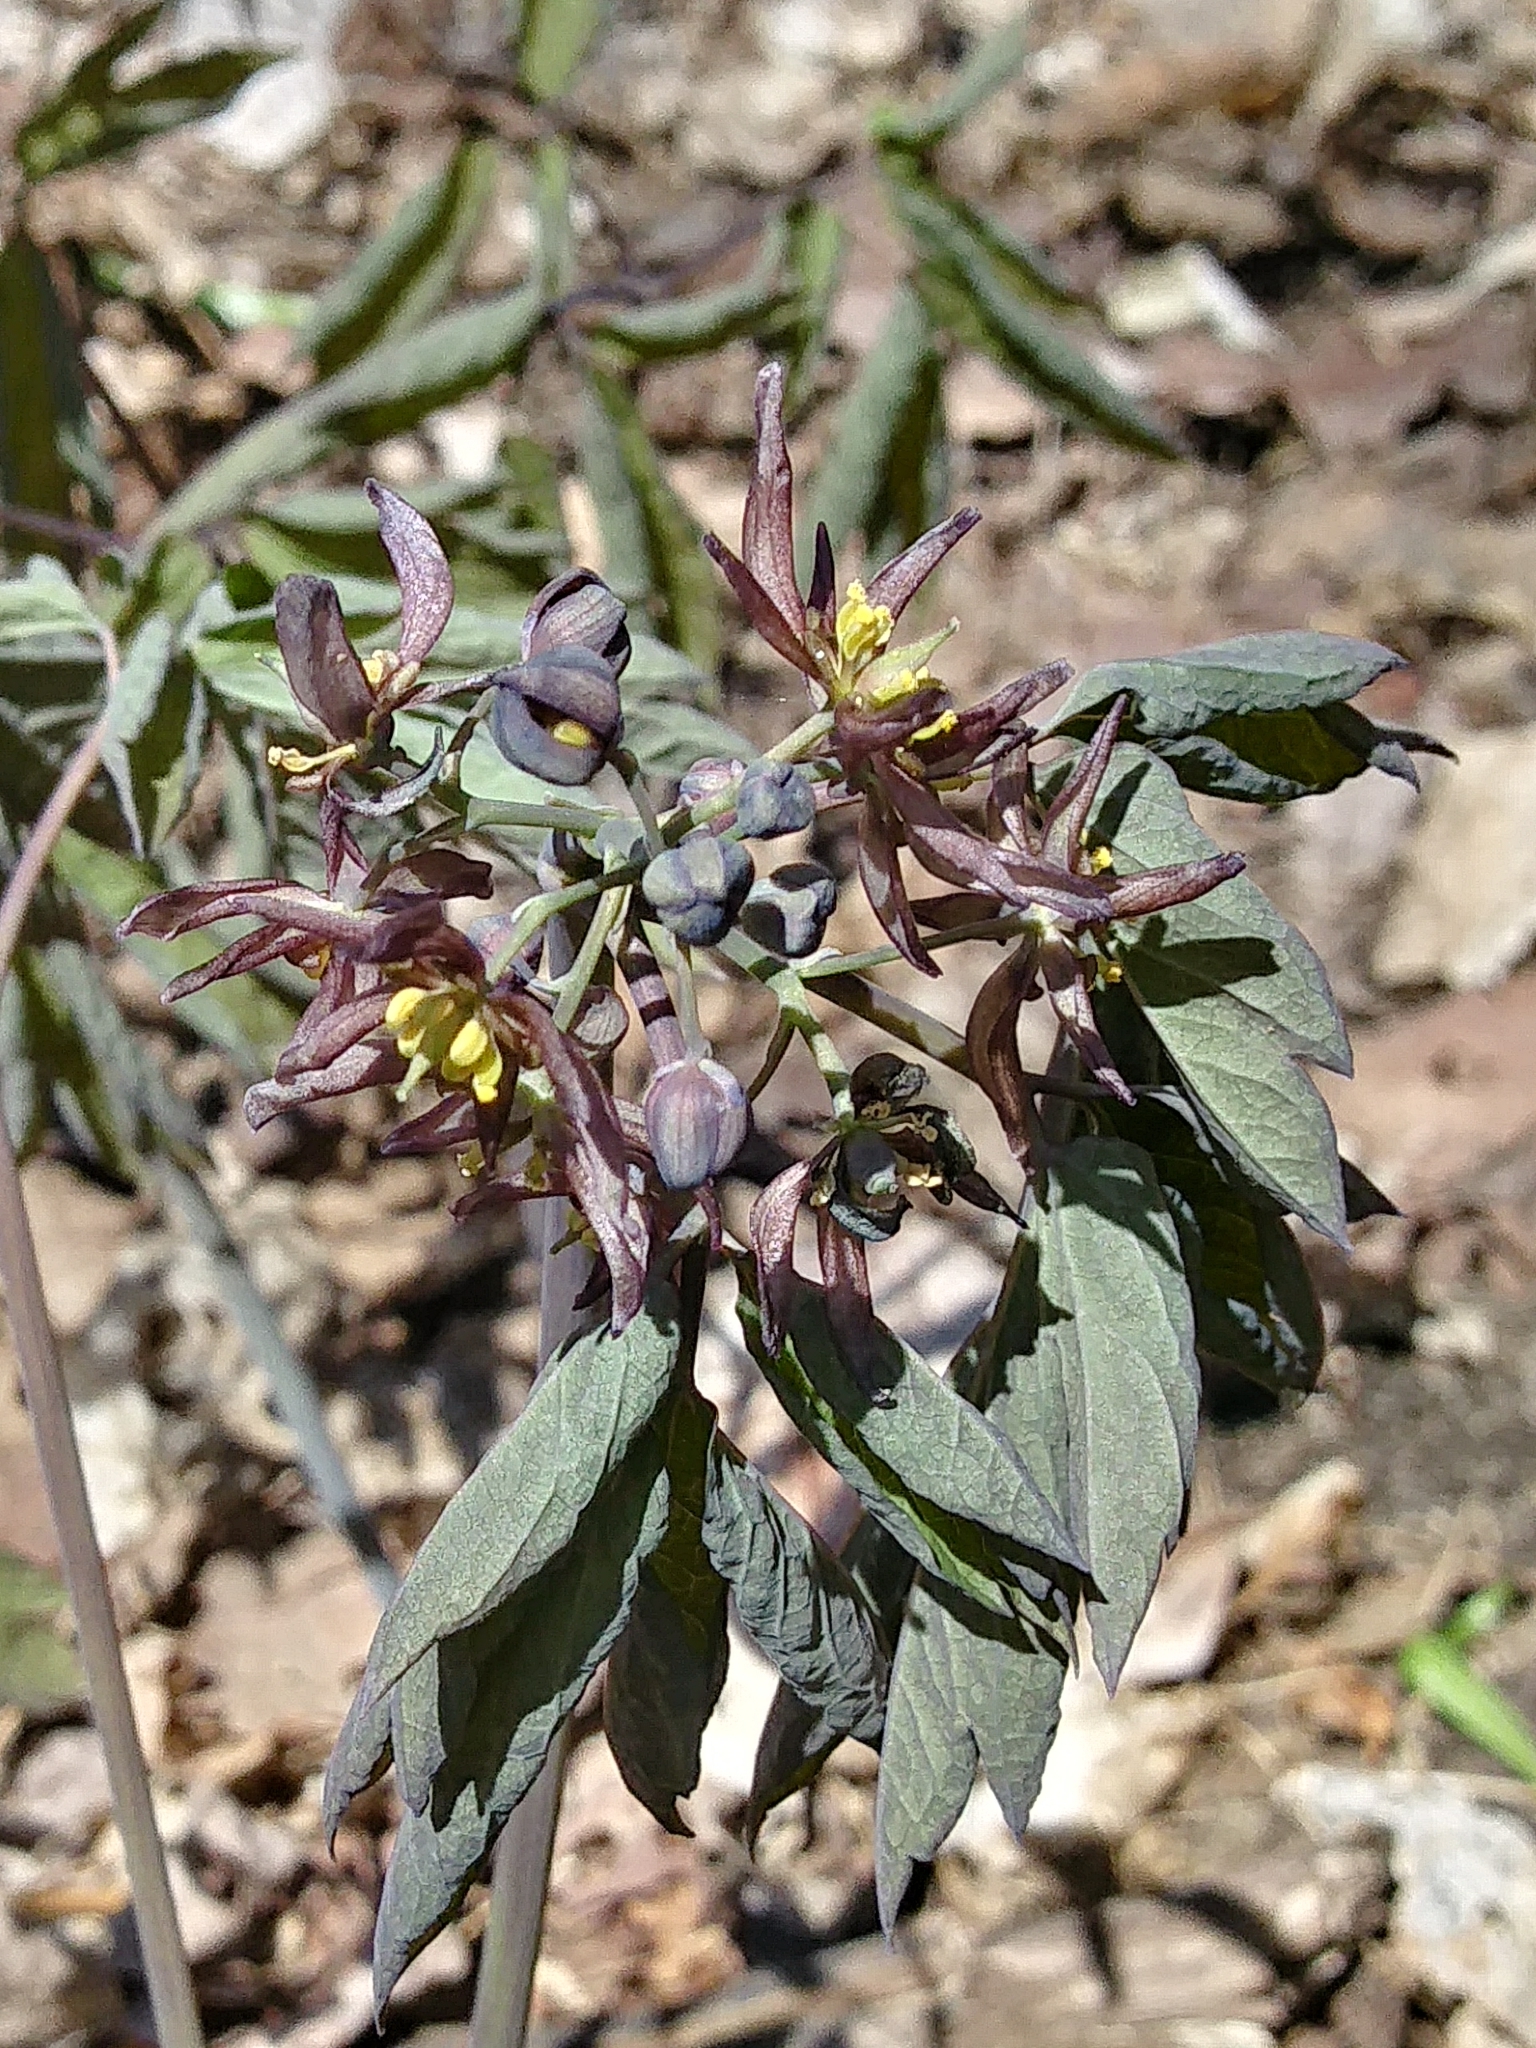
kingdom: Plantae
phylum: Tracheophyta
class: Magnoliopsida
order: Ranunculales
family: Berberidaceae
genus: Caulophyllum
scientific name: Caulophyllum giganteum
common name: Blue cohosh
